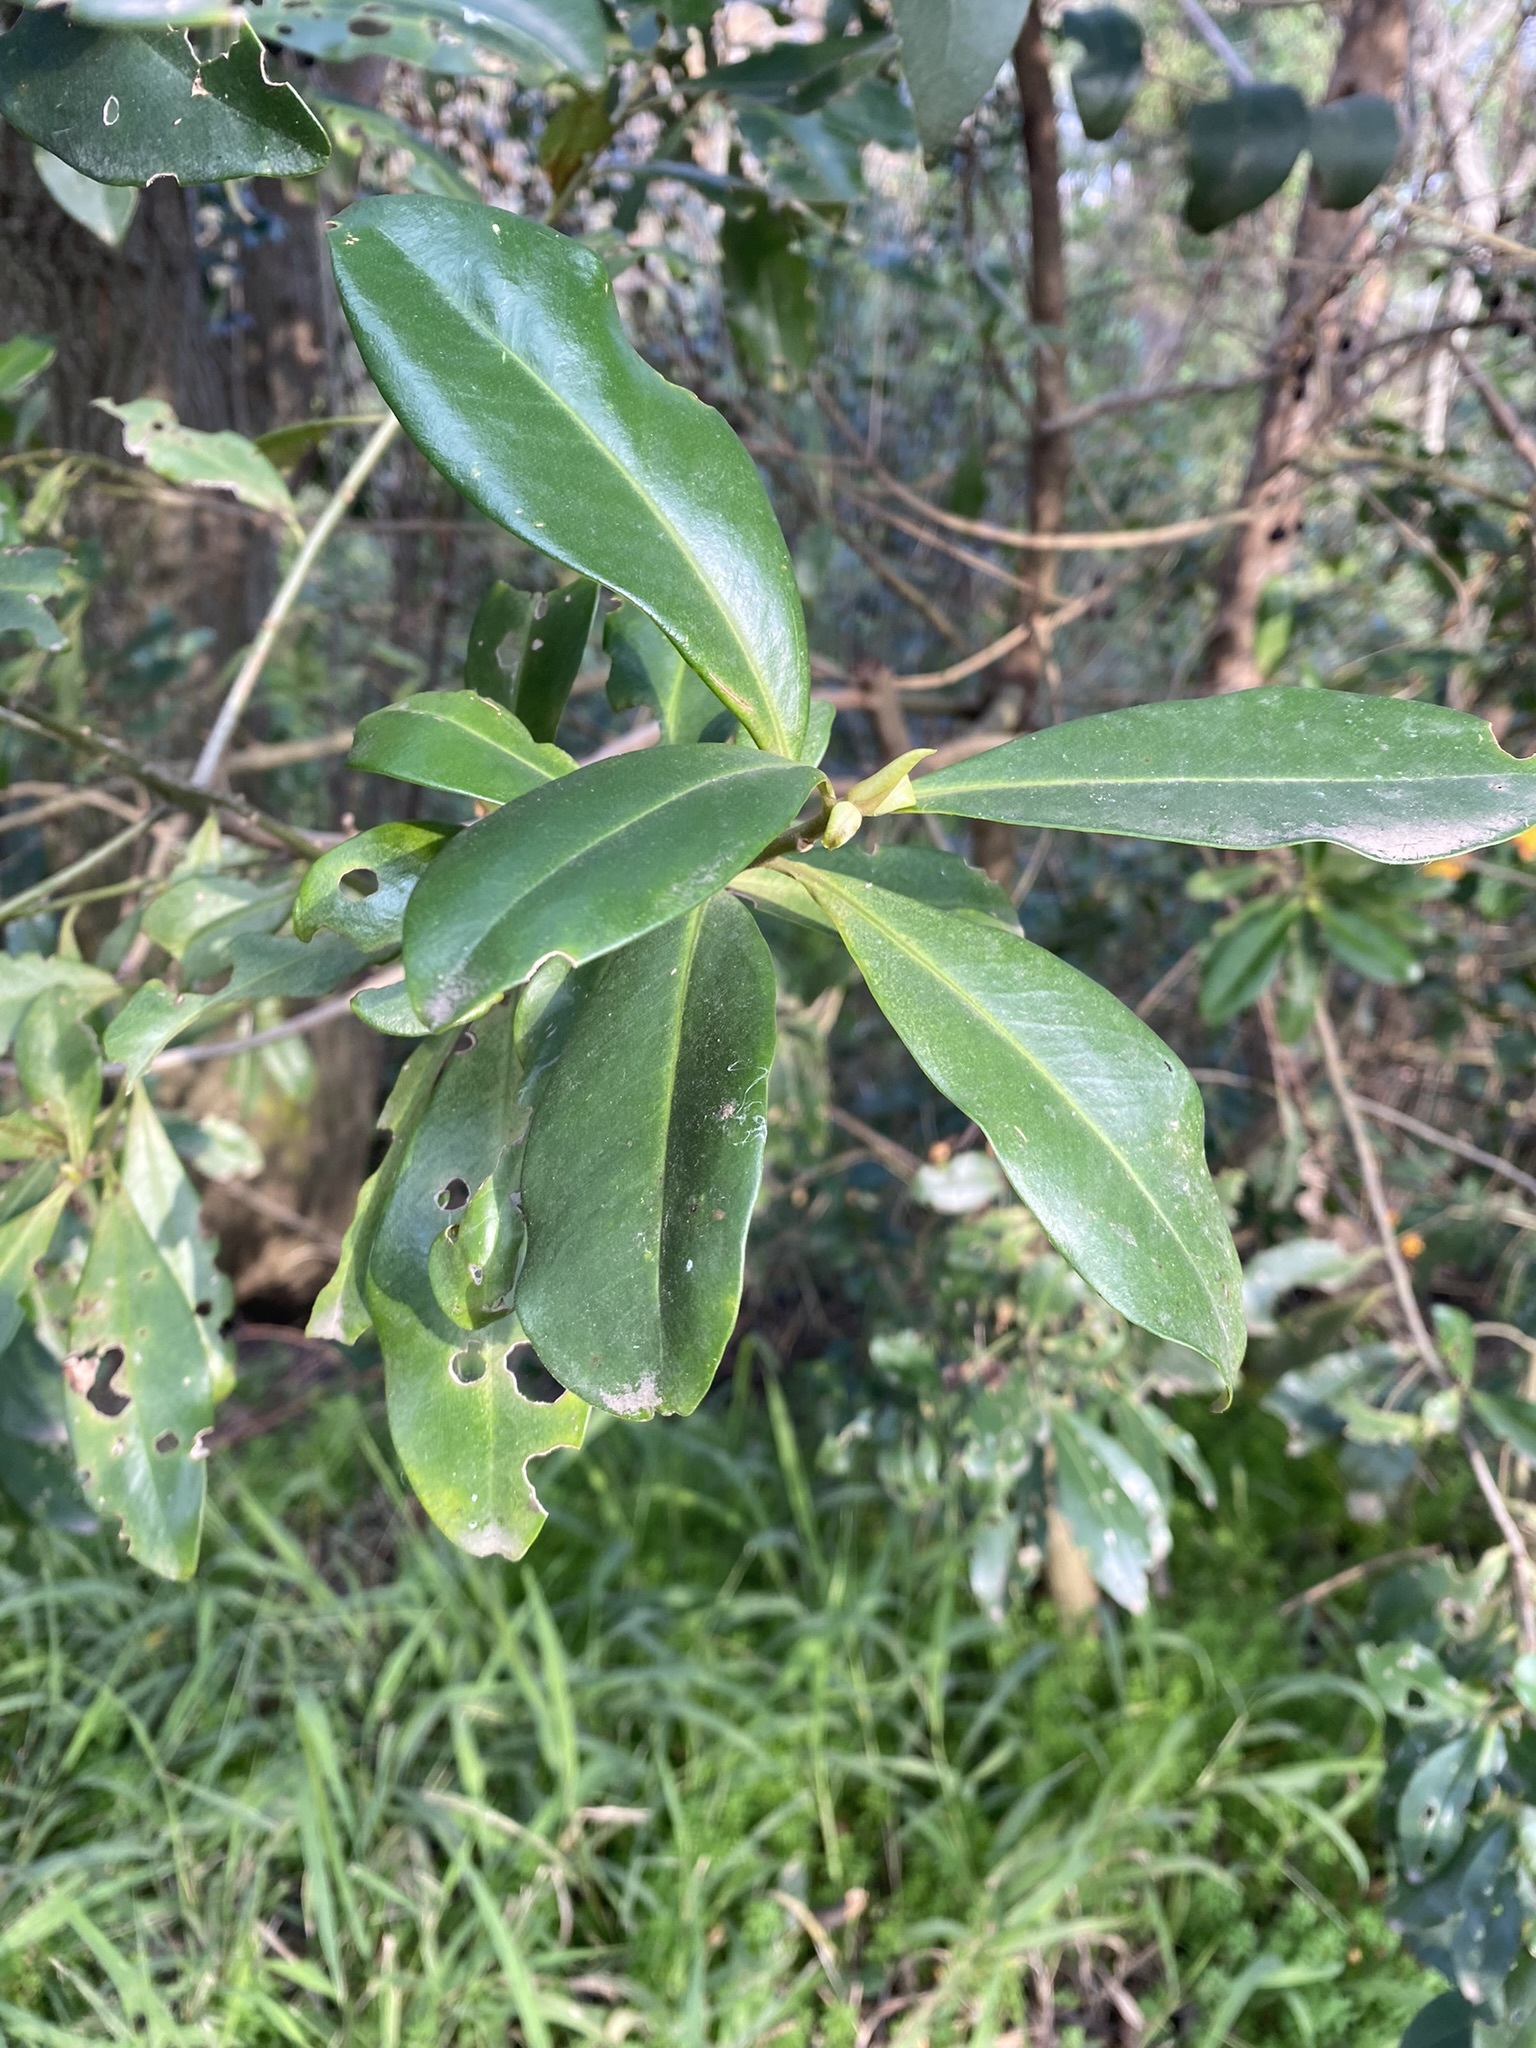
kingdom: Plantae
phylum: Tracheophyta
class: Magnoliopsida
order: Ericales
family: Primulaceae
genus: Myrsine
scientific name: Myrsine laetevirens
